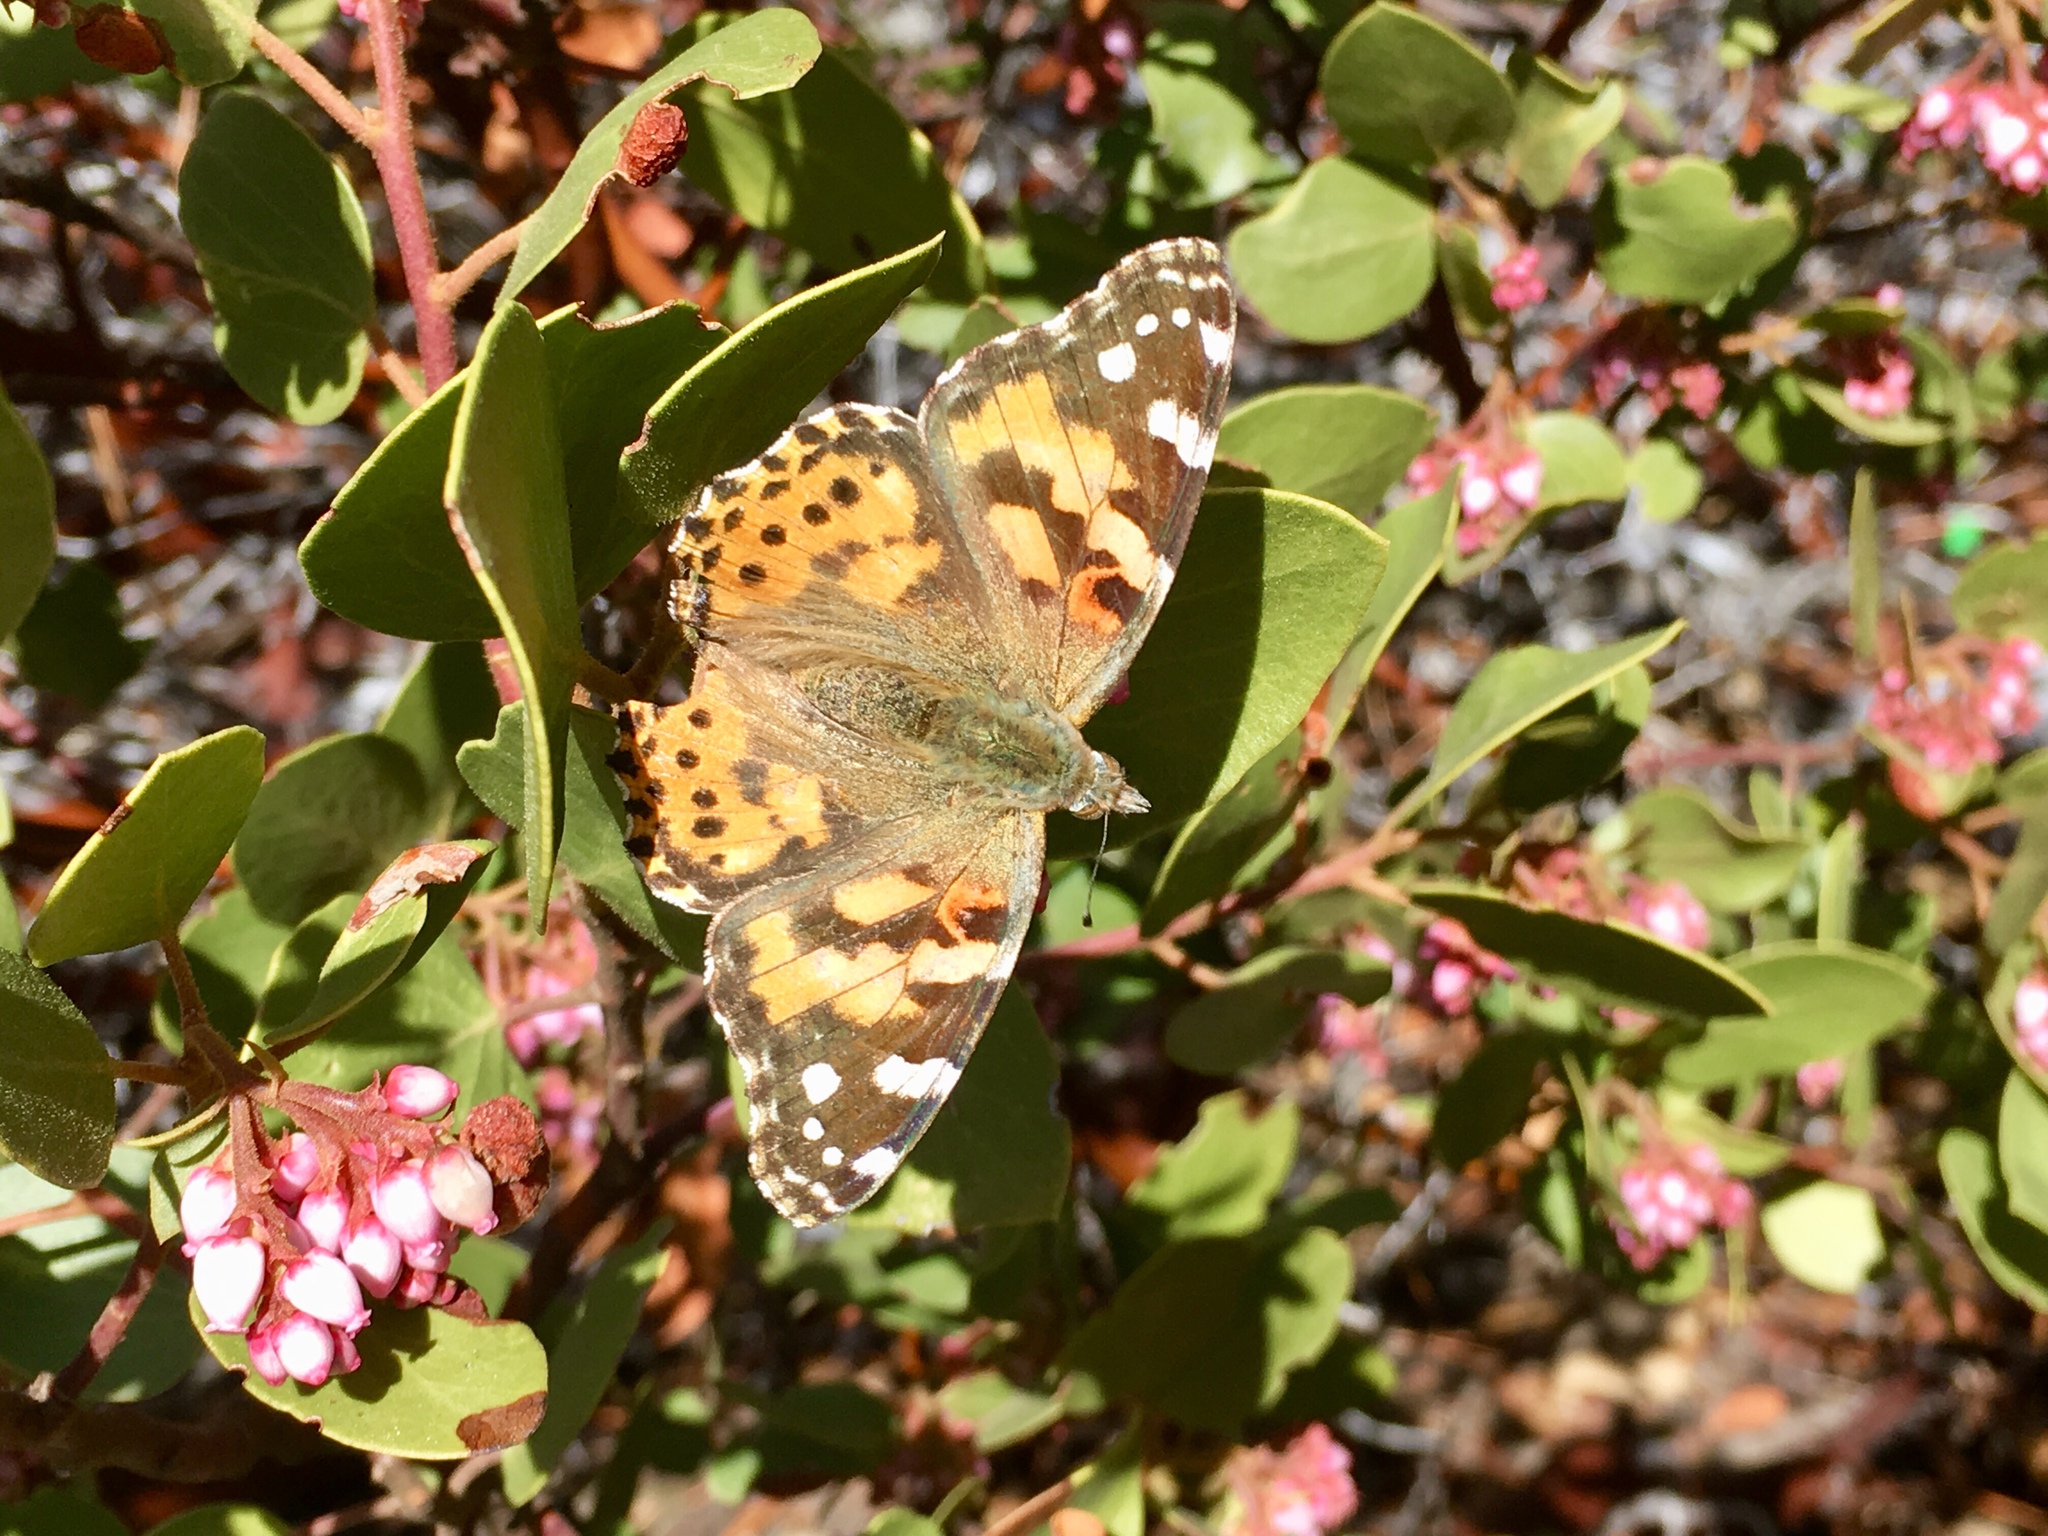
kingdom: Animalia
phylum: Arthropoda
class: Insecta
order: Lepidoptera
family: Nymphalidae
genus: Vanessa
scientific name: Vanessa cardui
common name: Painted lady
